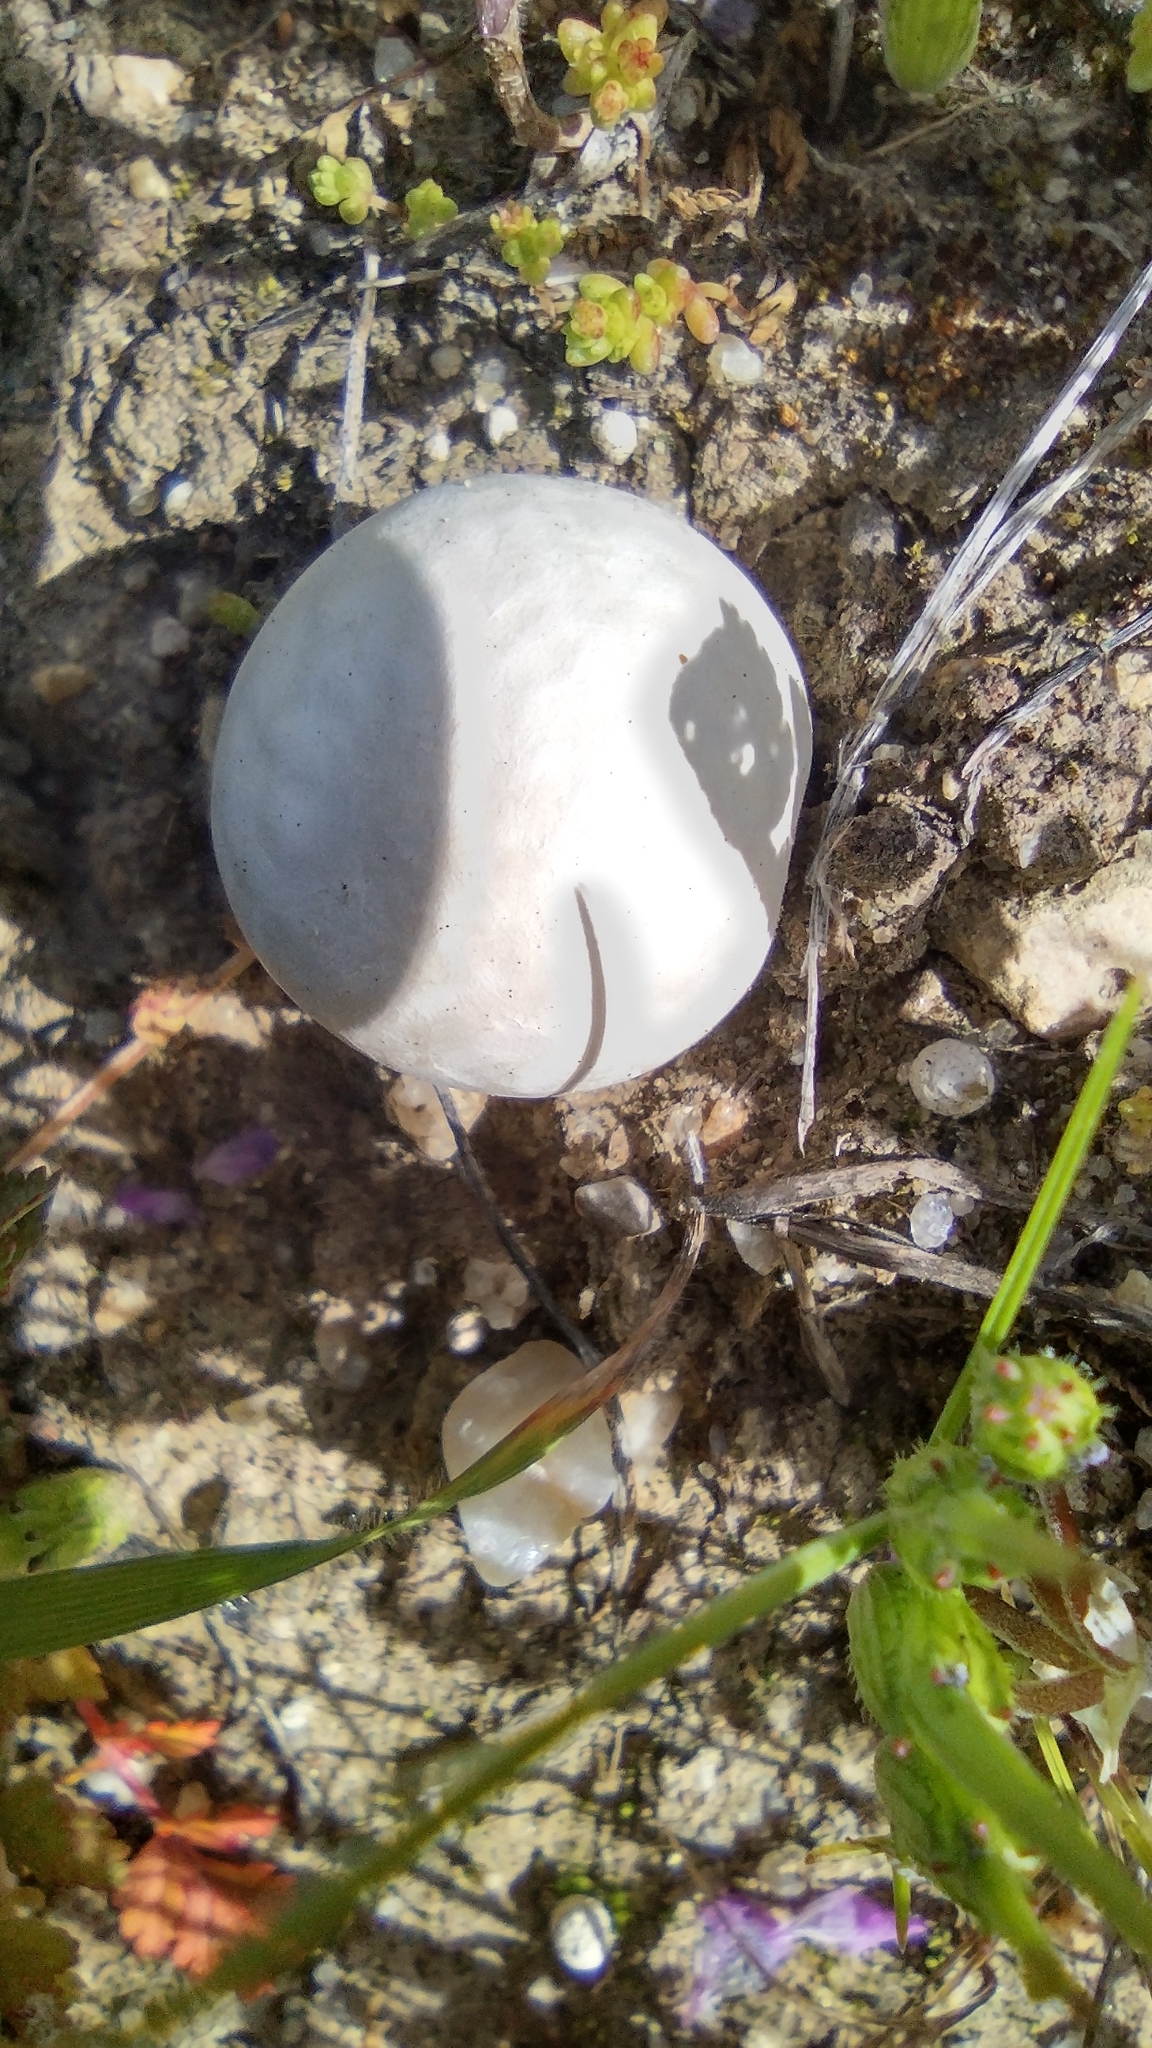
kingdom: Fungi
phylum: Basidiomycota
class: Agaricomycetes
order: Agaricales
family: Lycoperdaceae
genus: Bovista
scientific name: Bovista plumbea
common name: Grey puffball
